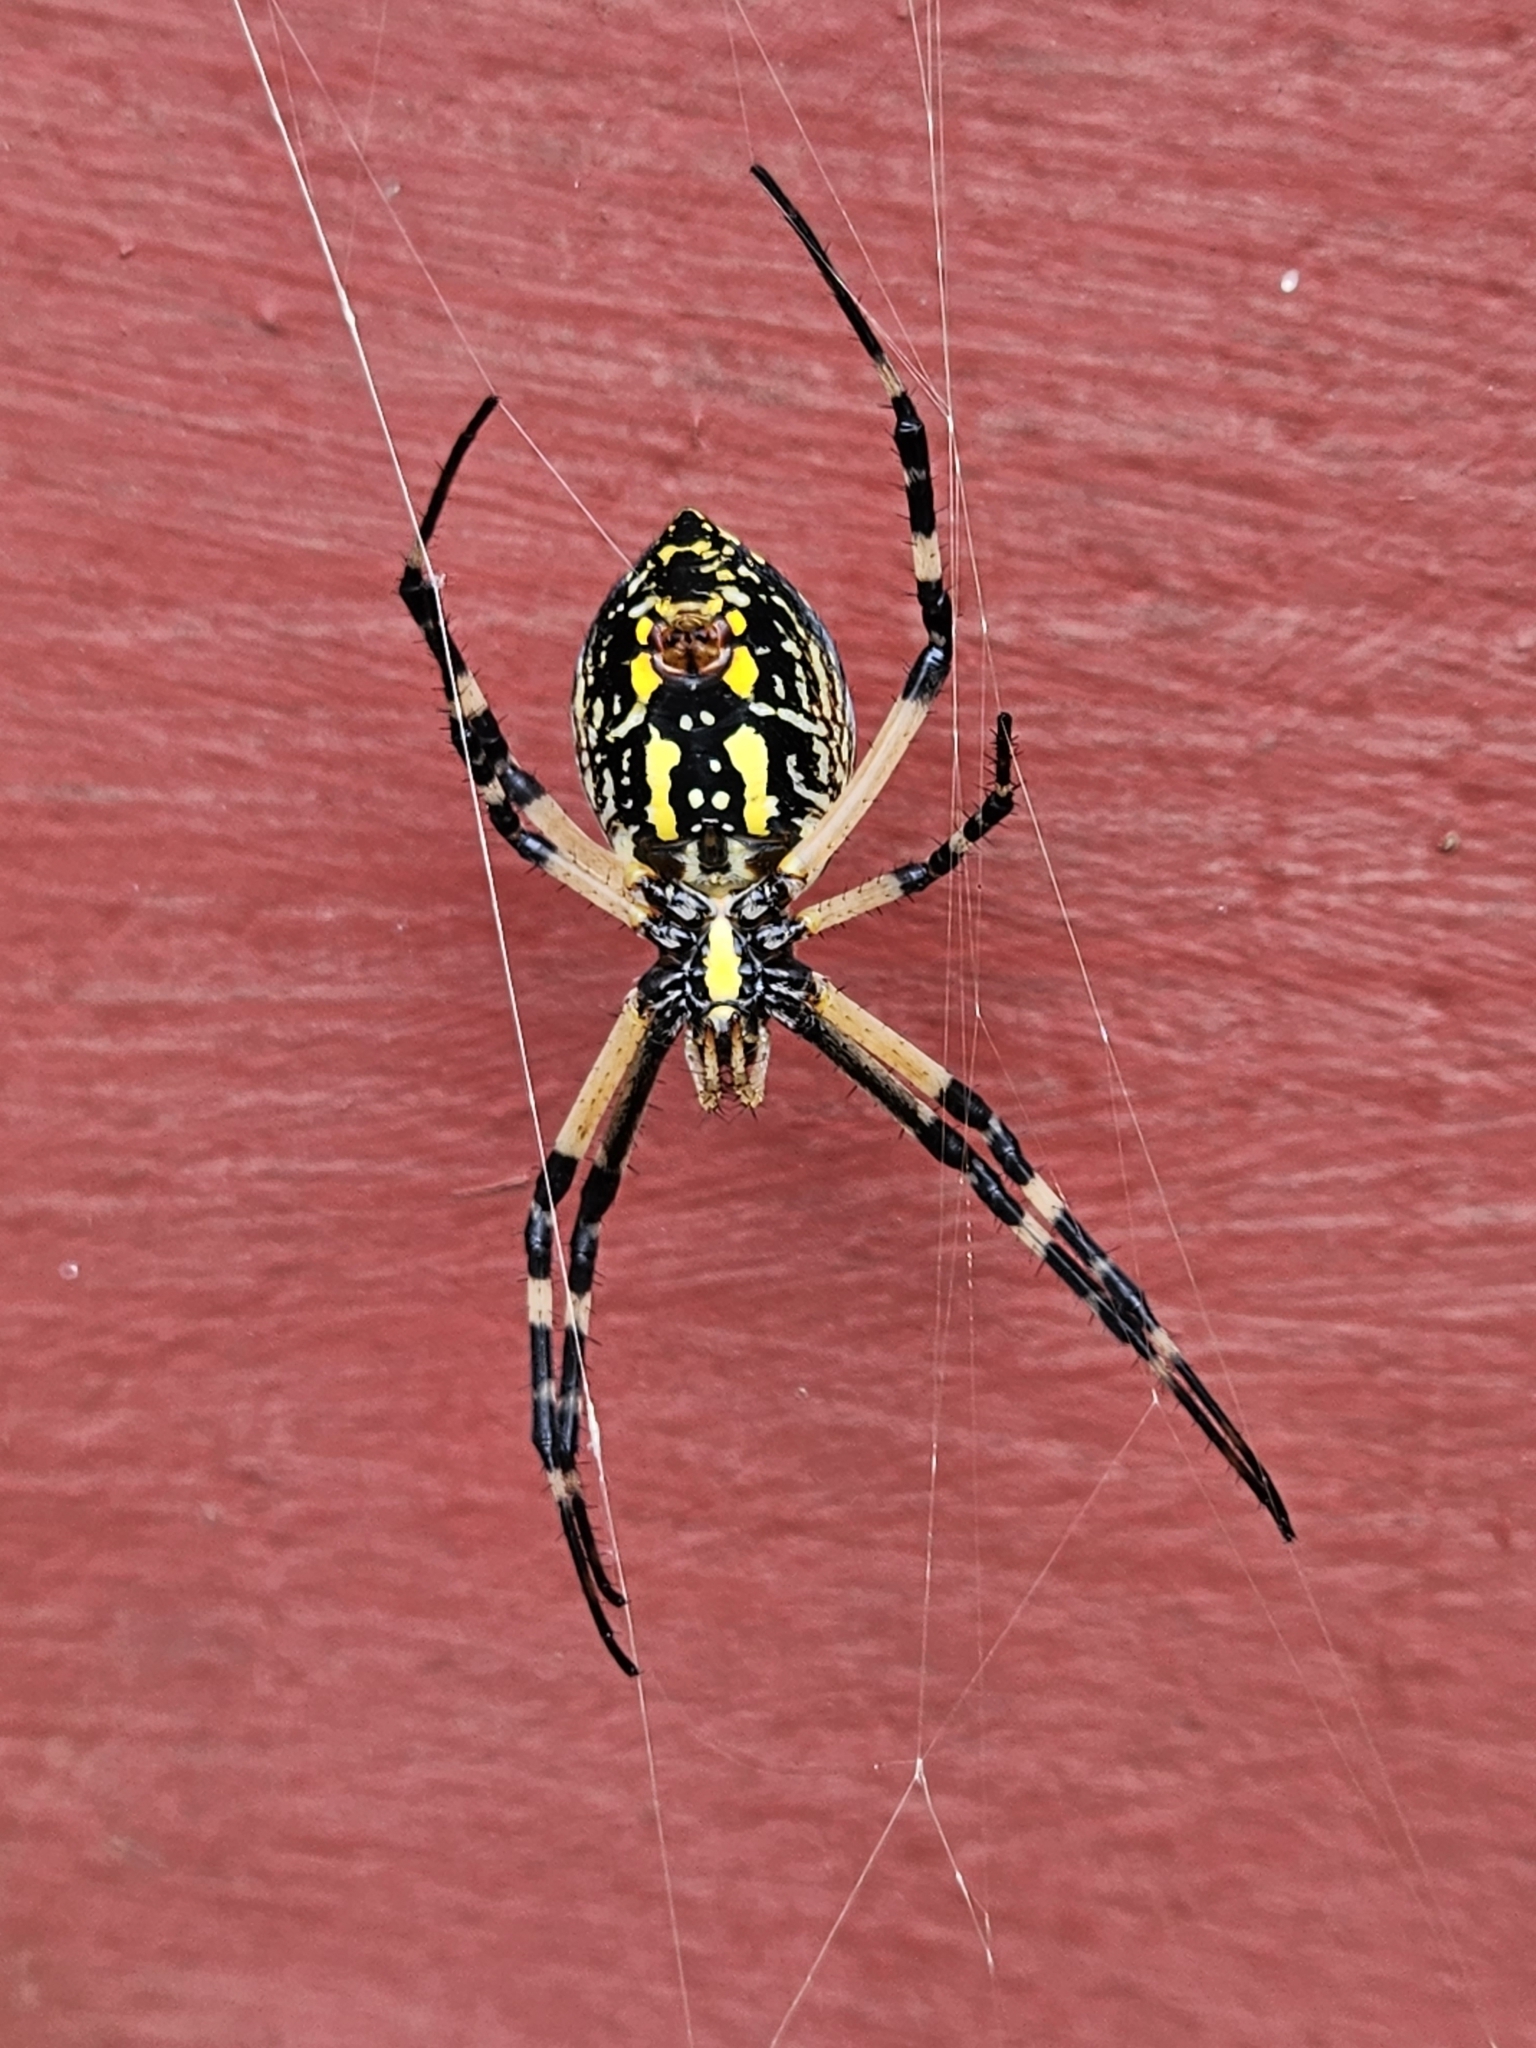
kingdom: Animalia
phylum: Arthropoda
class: Arachnida
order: Araneae
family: Araneidae
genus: Argiope
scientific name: Argiope aurantia
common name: Orb weavers
